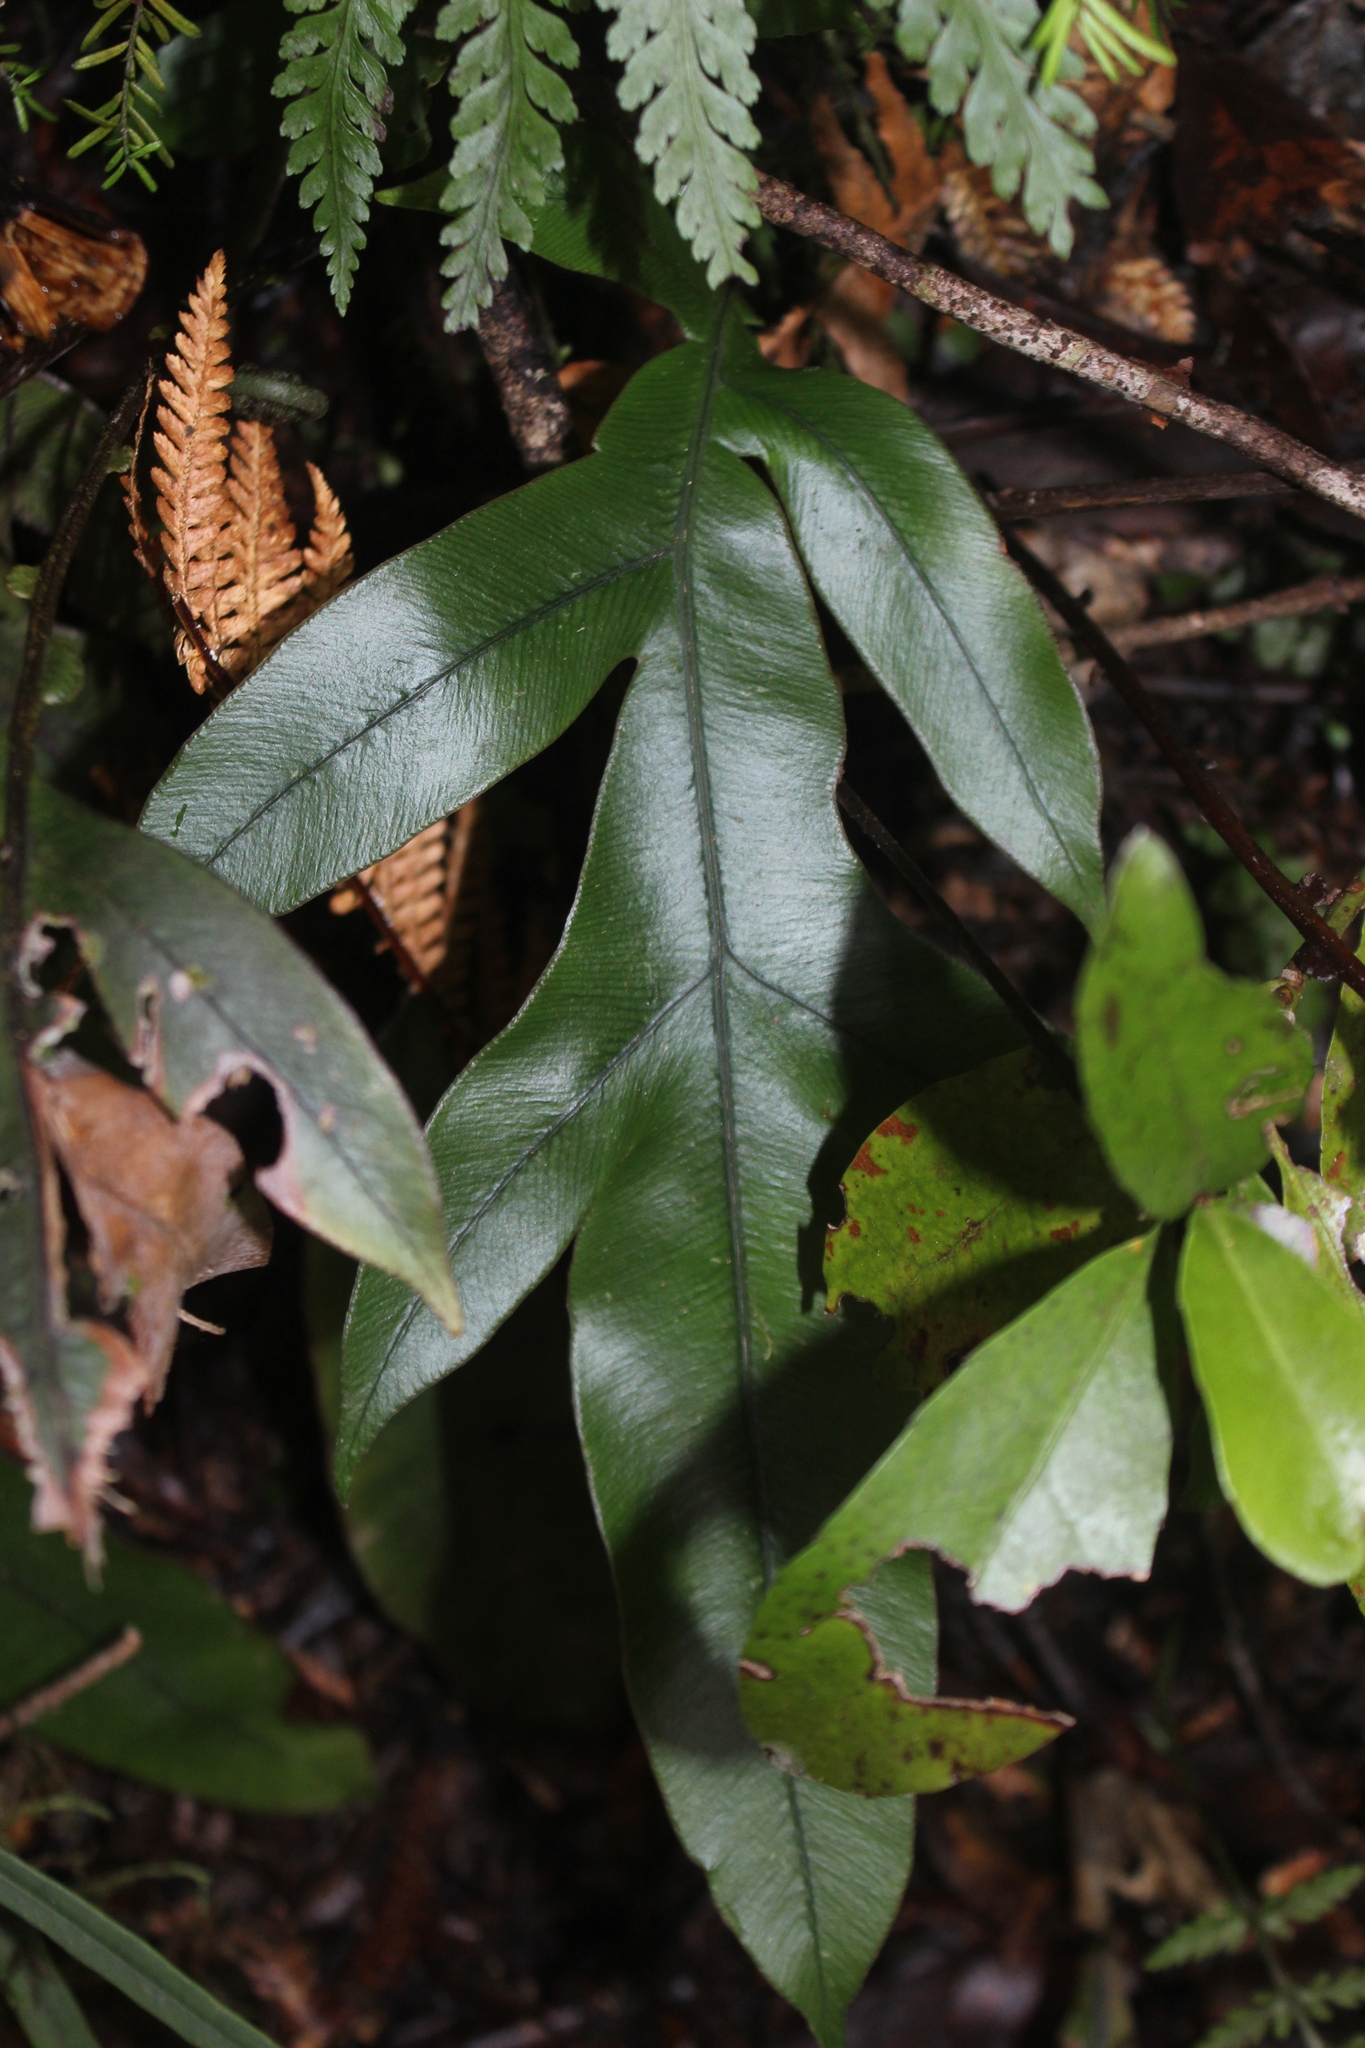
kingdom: Plantae
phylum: Tracheophyta
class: Polypodiopsida
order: Polypodiales
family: Blechnaceae
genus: Austroblechnum
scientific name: Austroblechnum colensoi
